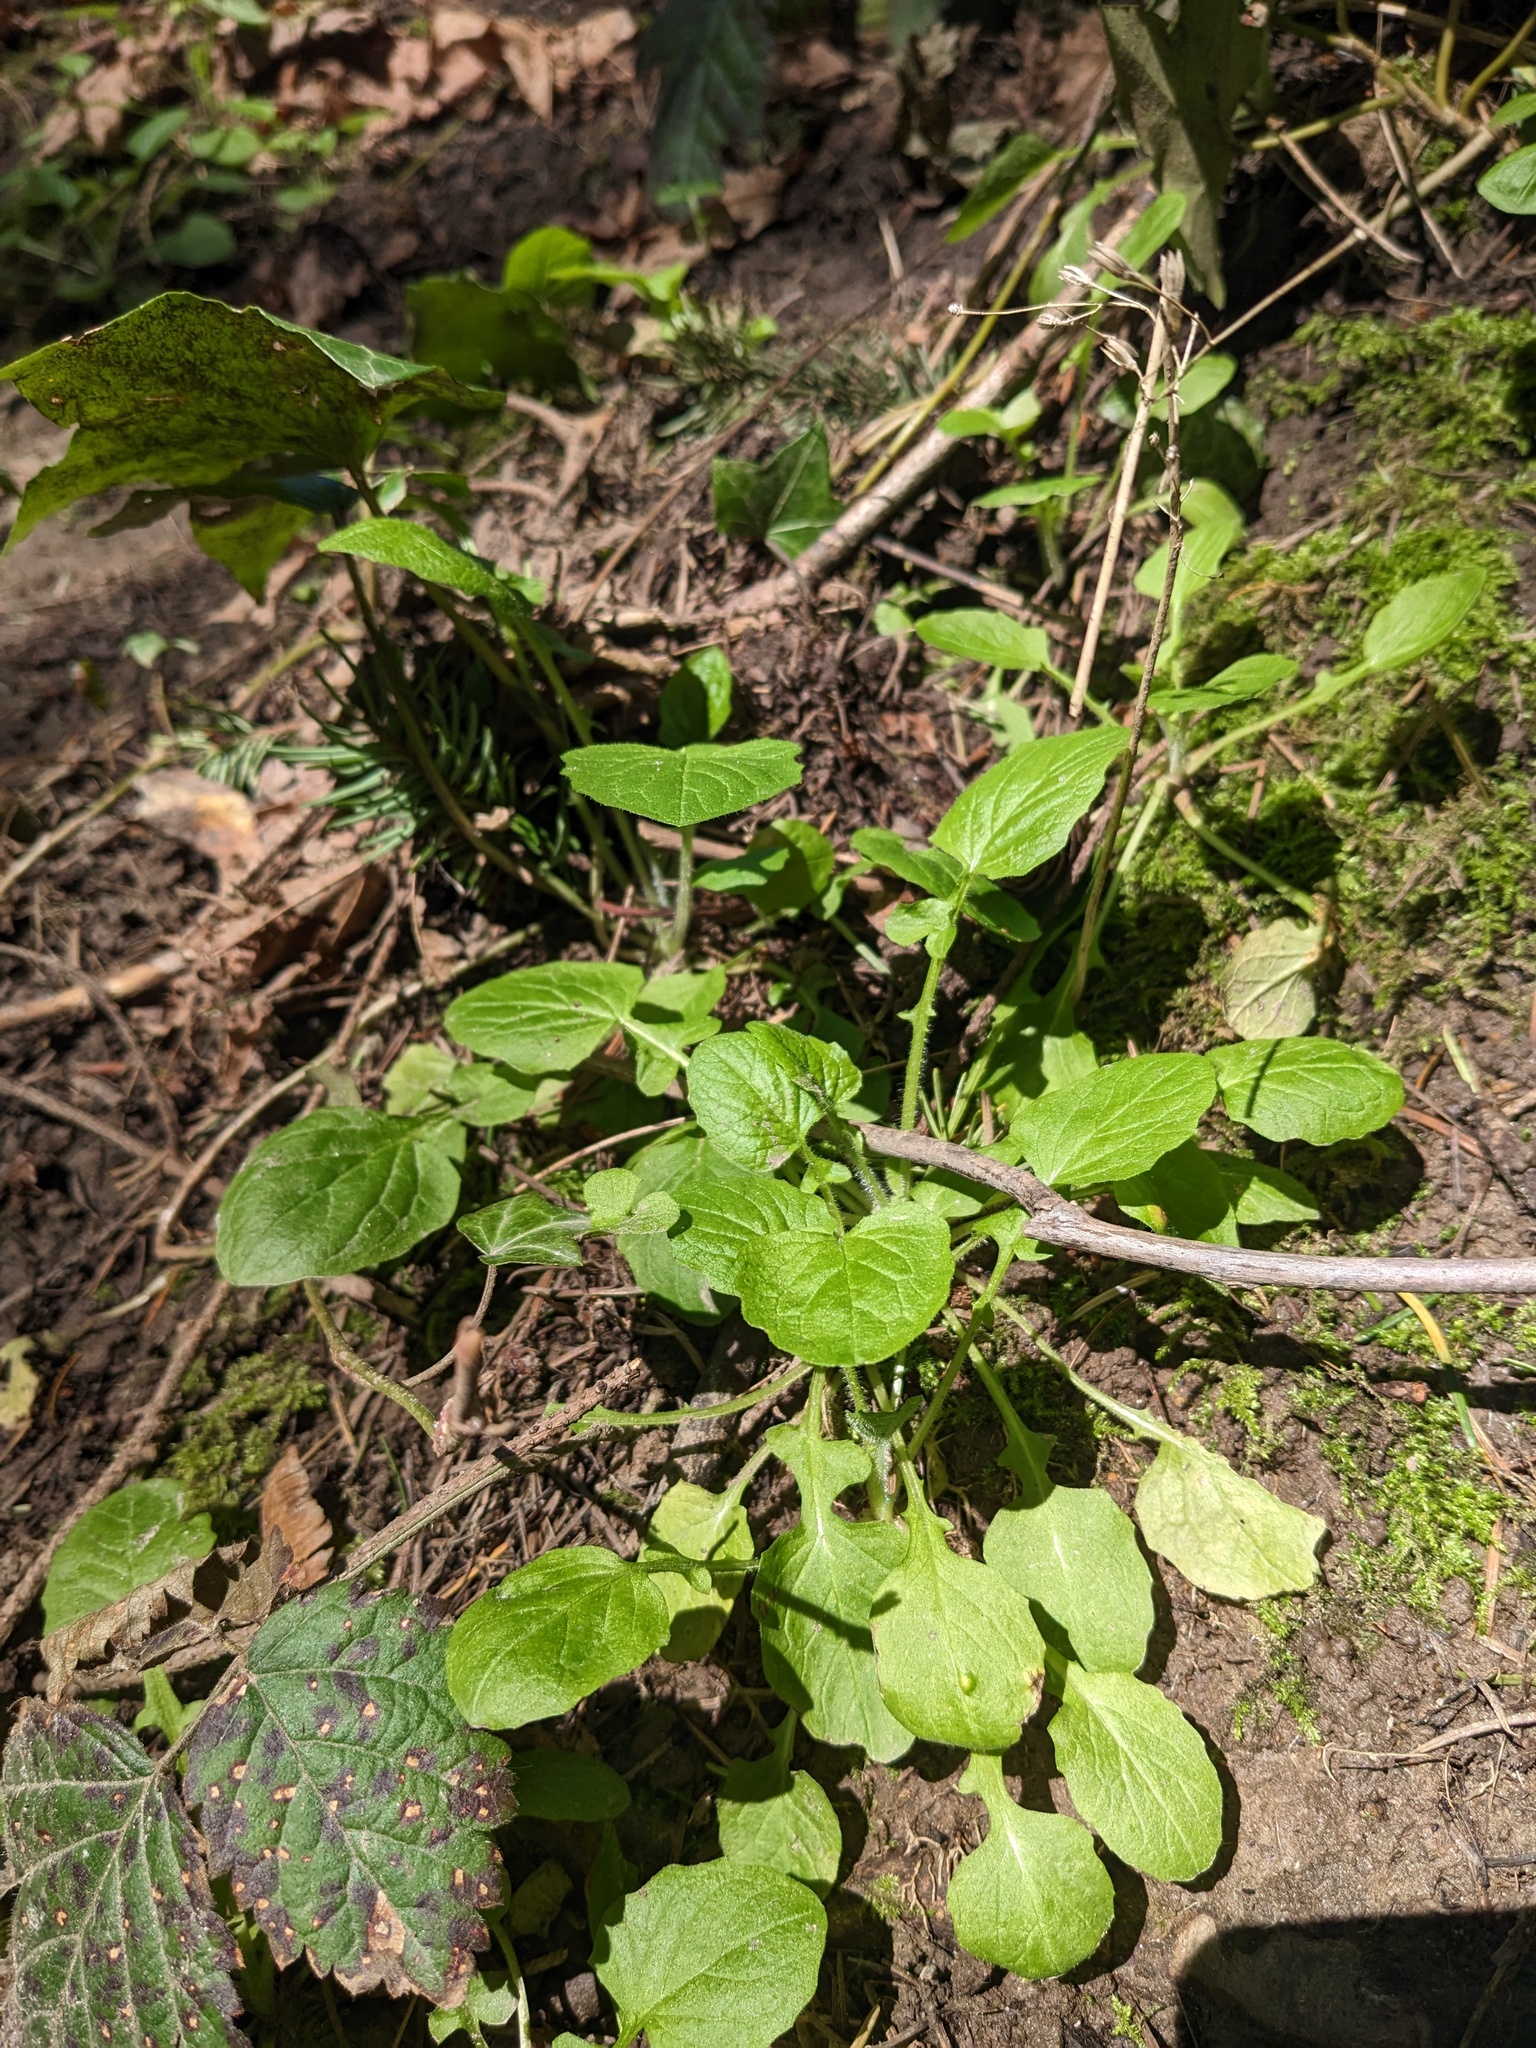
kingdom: Plantae
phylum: Tracheophyta
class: Magnoliopsida
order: Asterales
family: Asteraceae
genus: Lapsana
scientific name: Lapsana communis
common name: Nipplewort
